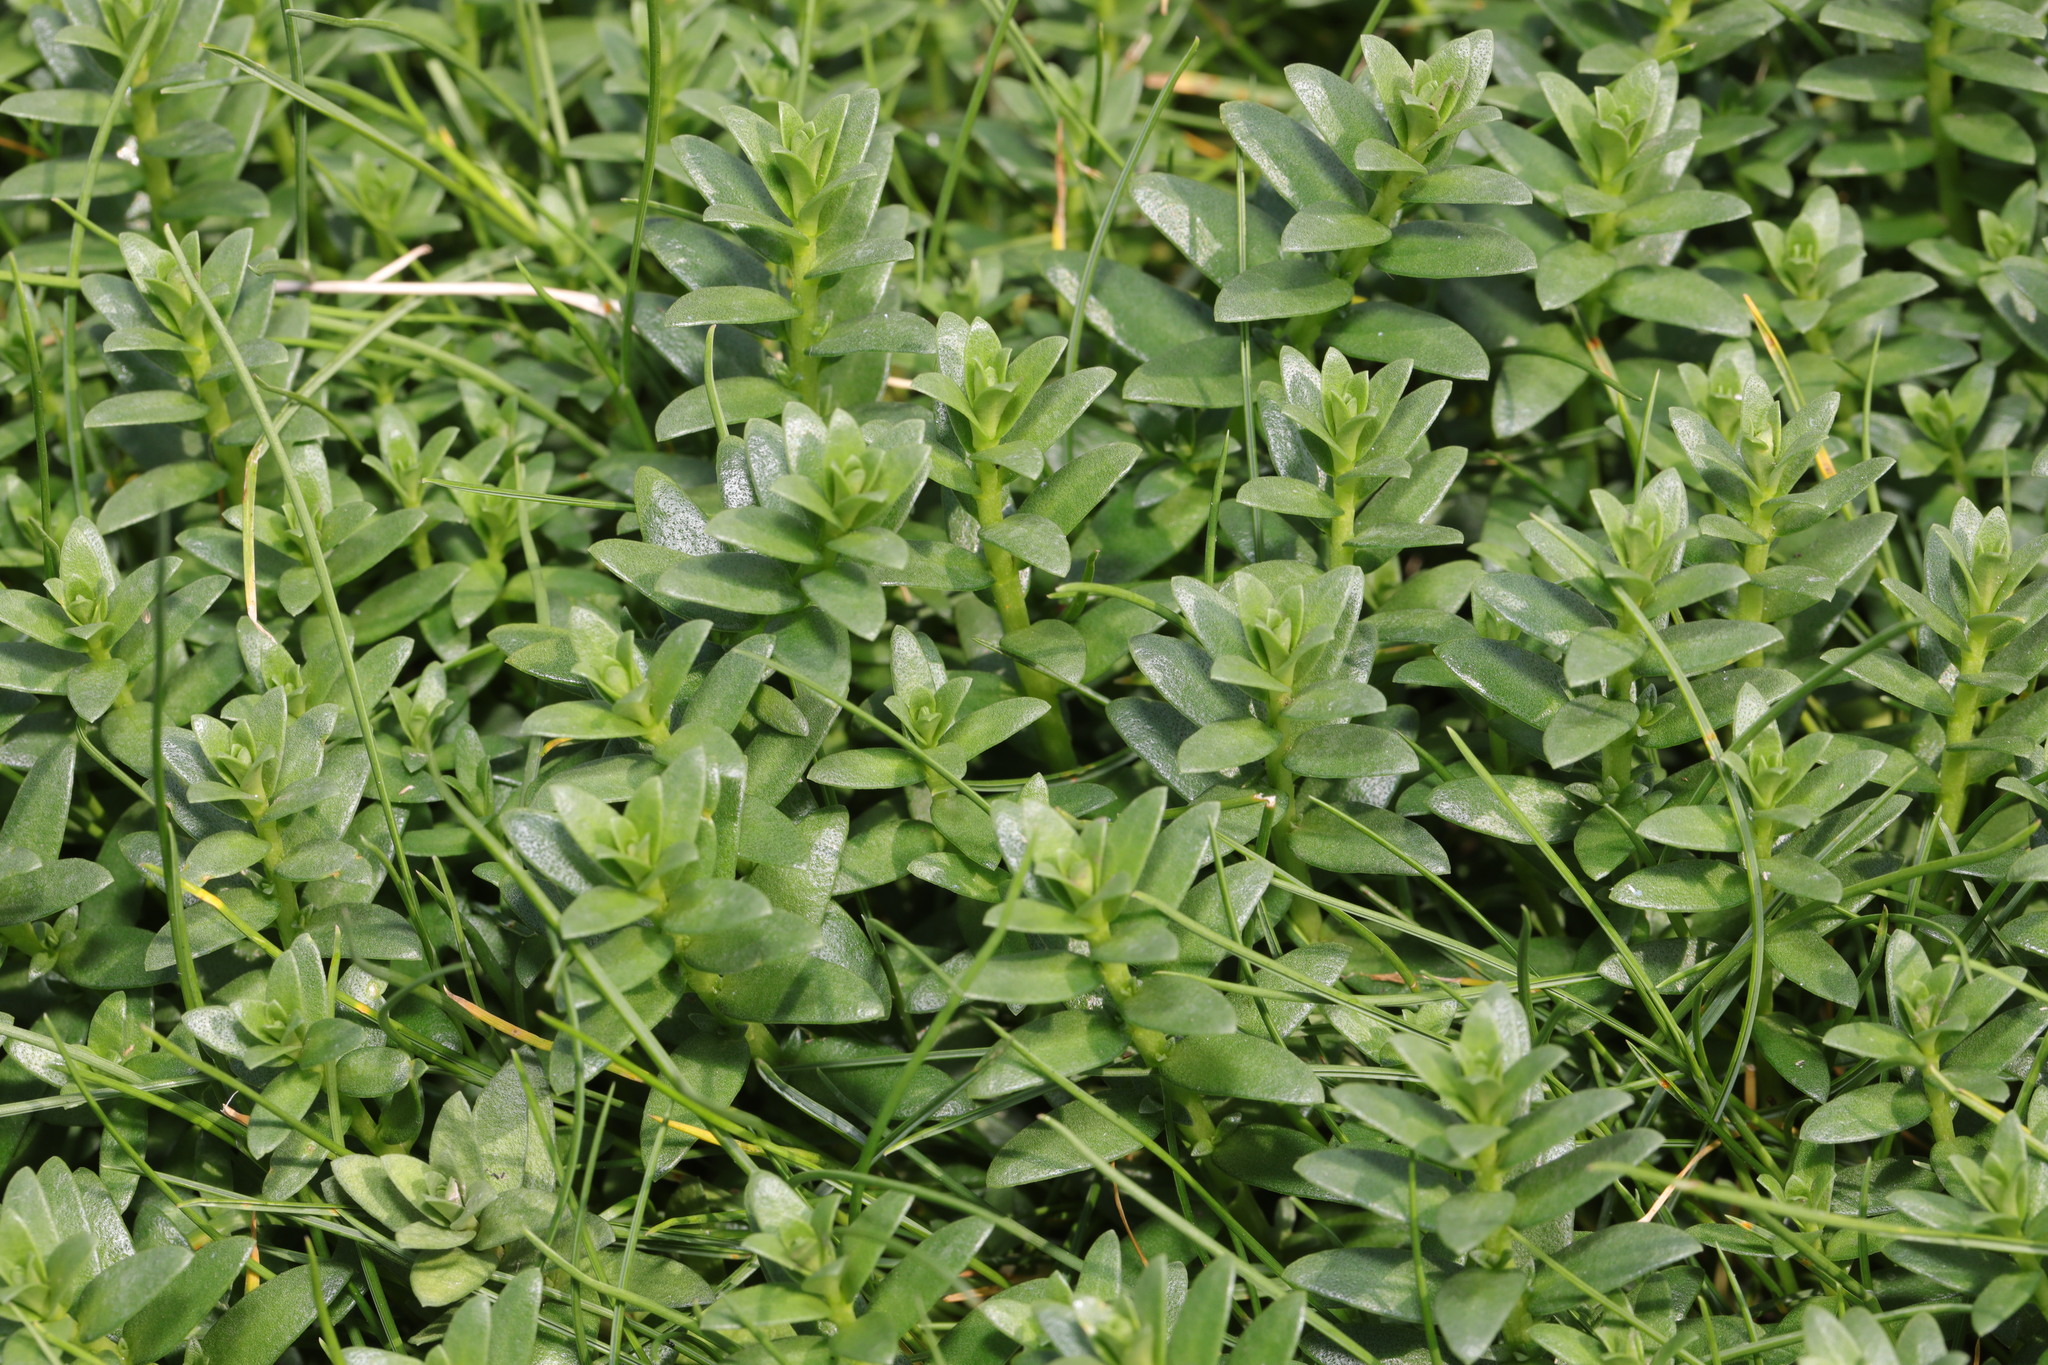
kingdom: Plantae
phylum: Tracheophyta
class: Magnoliopsida
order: Ericales
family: Primulaceae
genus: Lysimachia
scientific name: Lysimachia maritima
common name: Sea milkwort
